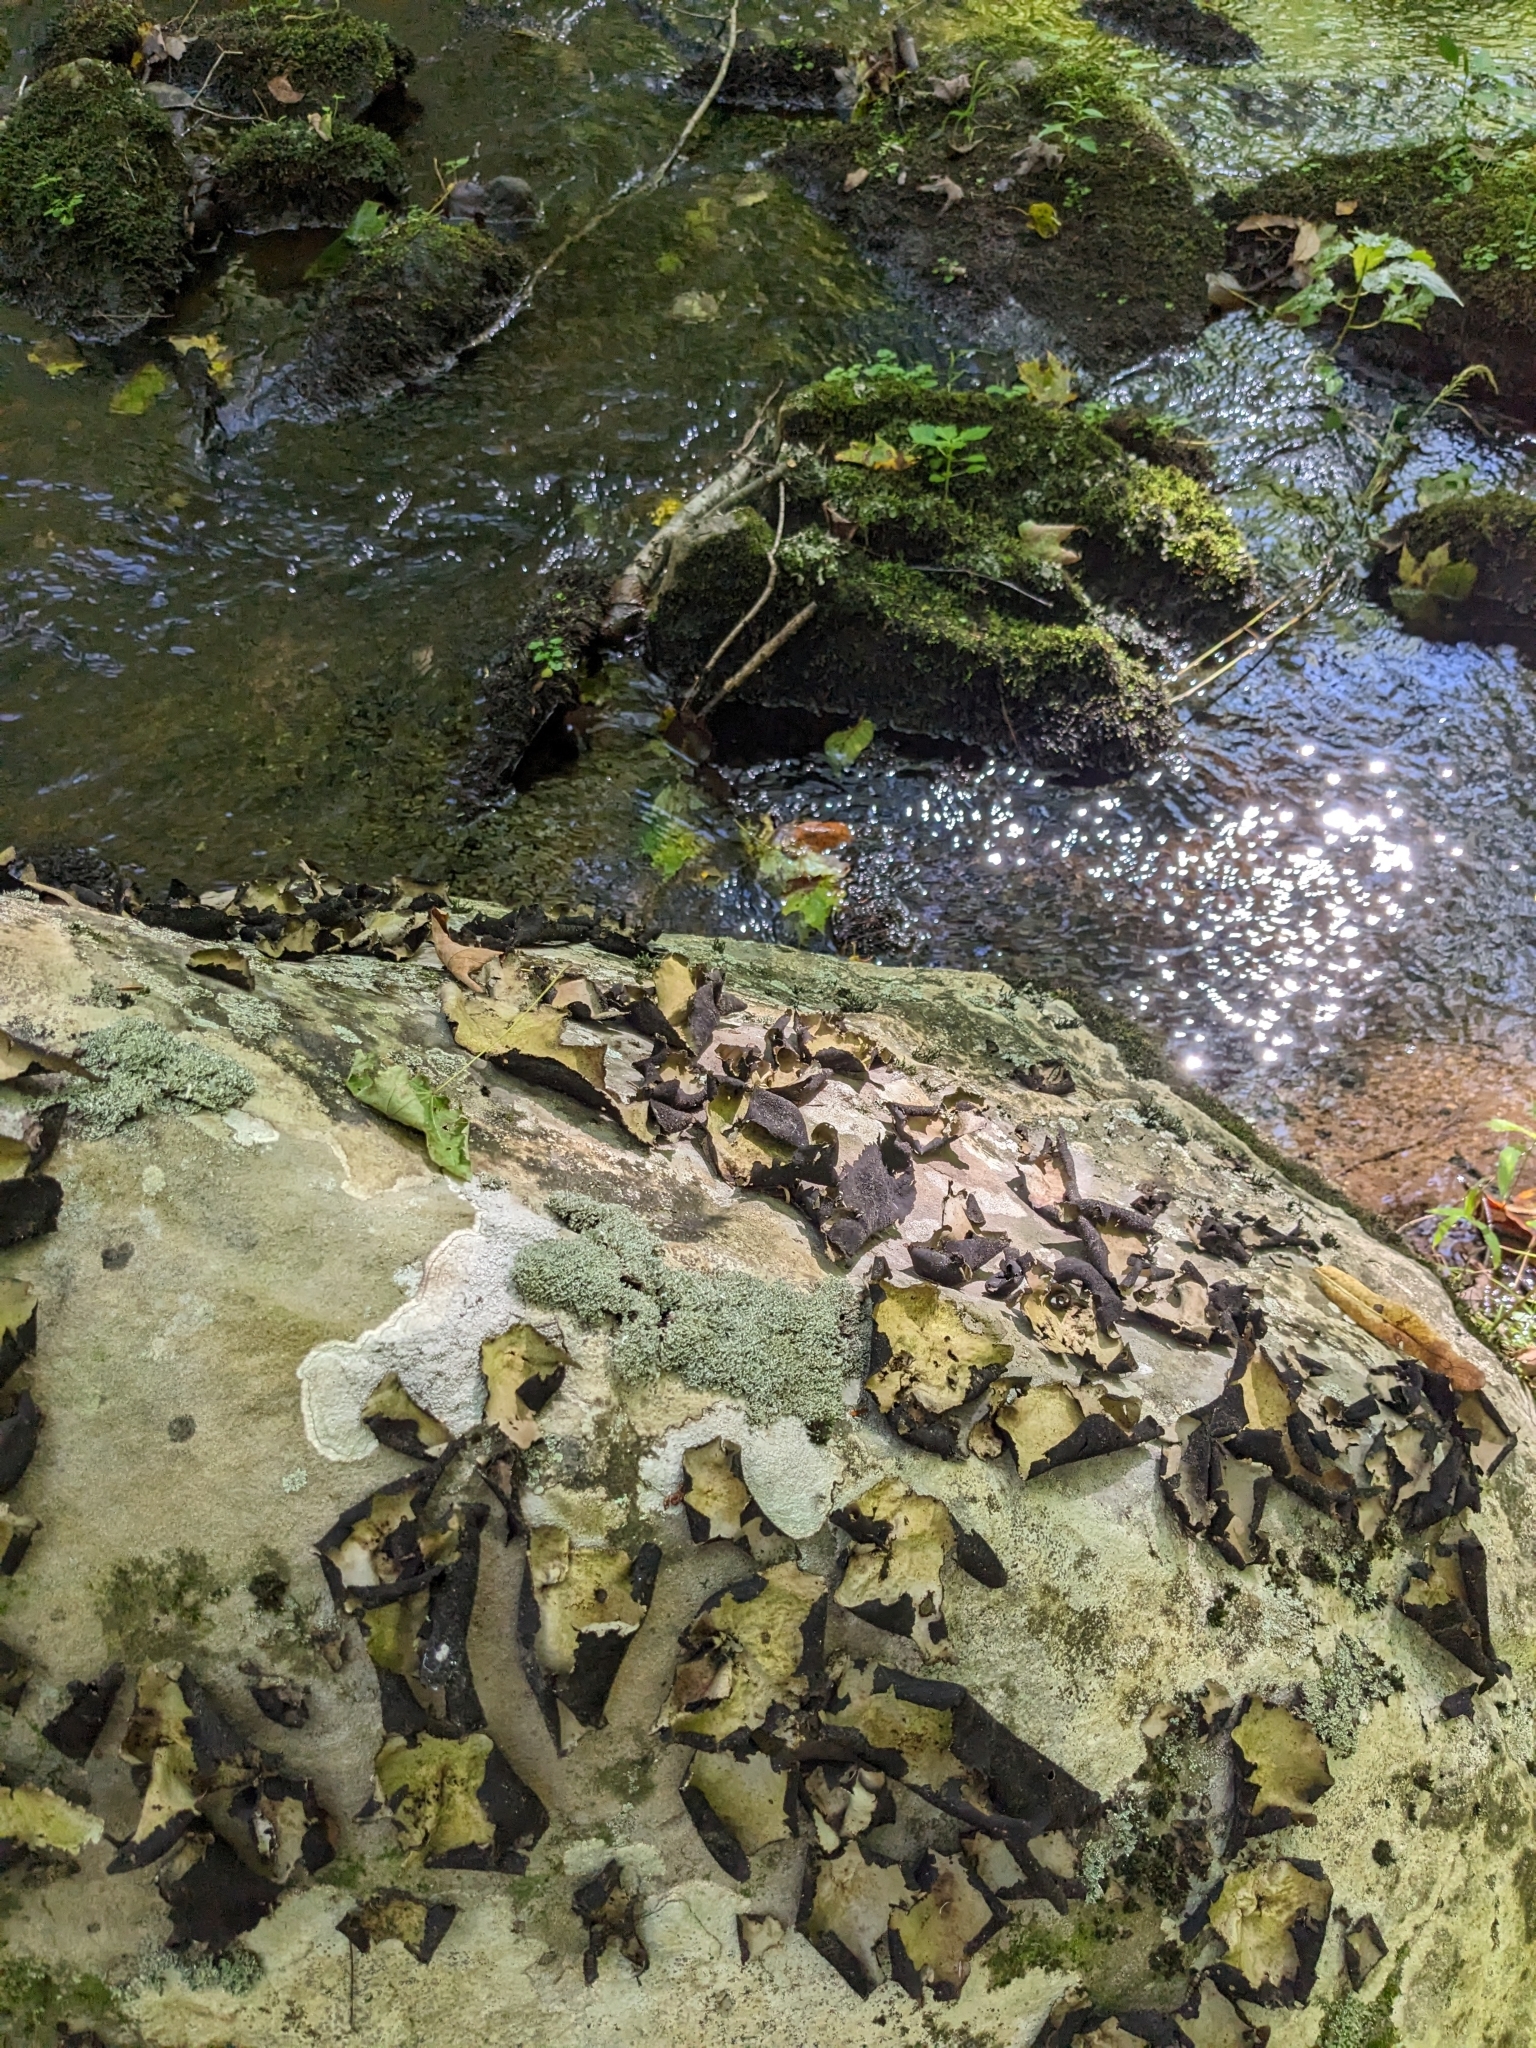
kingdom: Fungi
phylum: Ascomycota
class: Lecanoromycetes
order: Umbilicariales
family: Umbilicariaceae
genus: Umbilicaria
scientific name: Umbilicaria mammulata
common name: Smooth rock tripe
